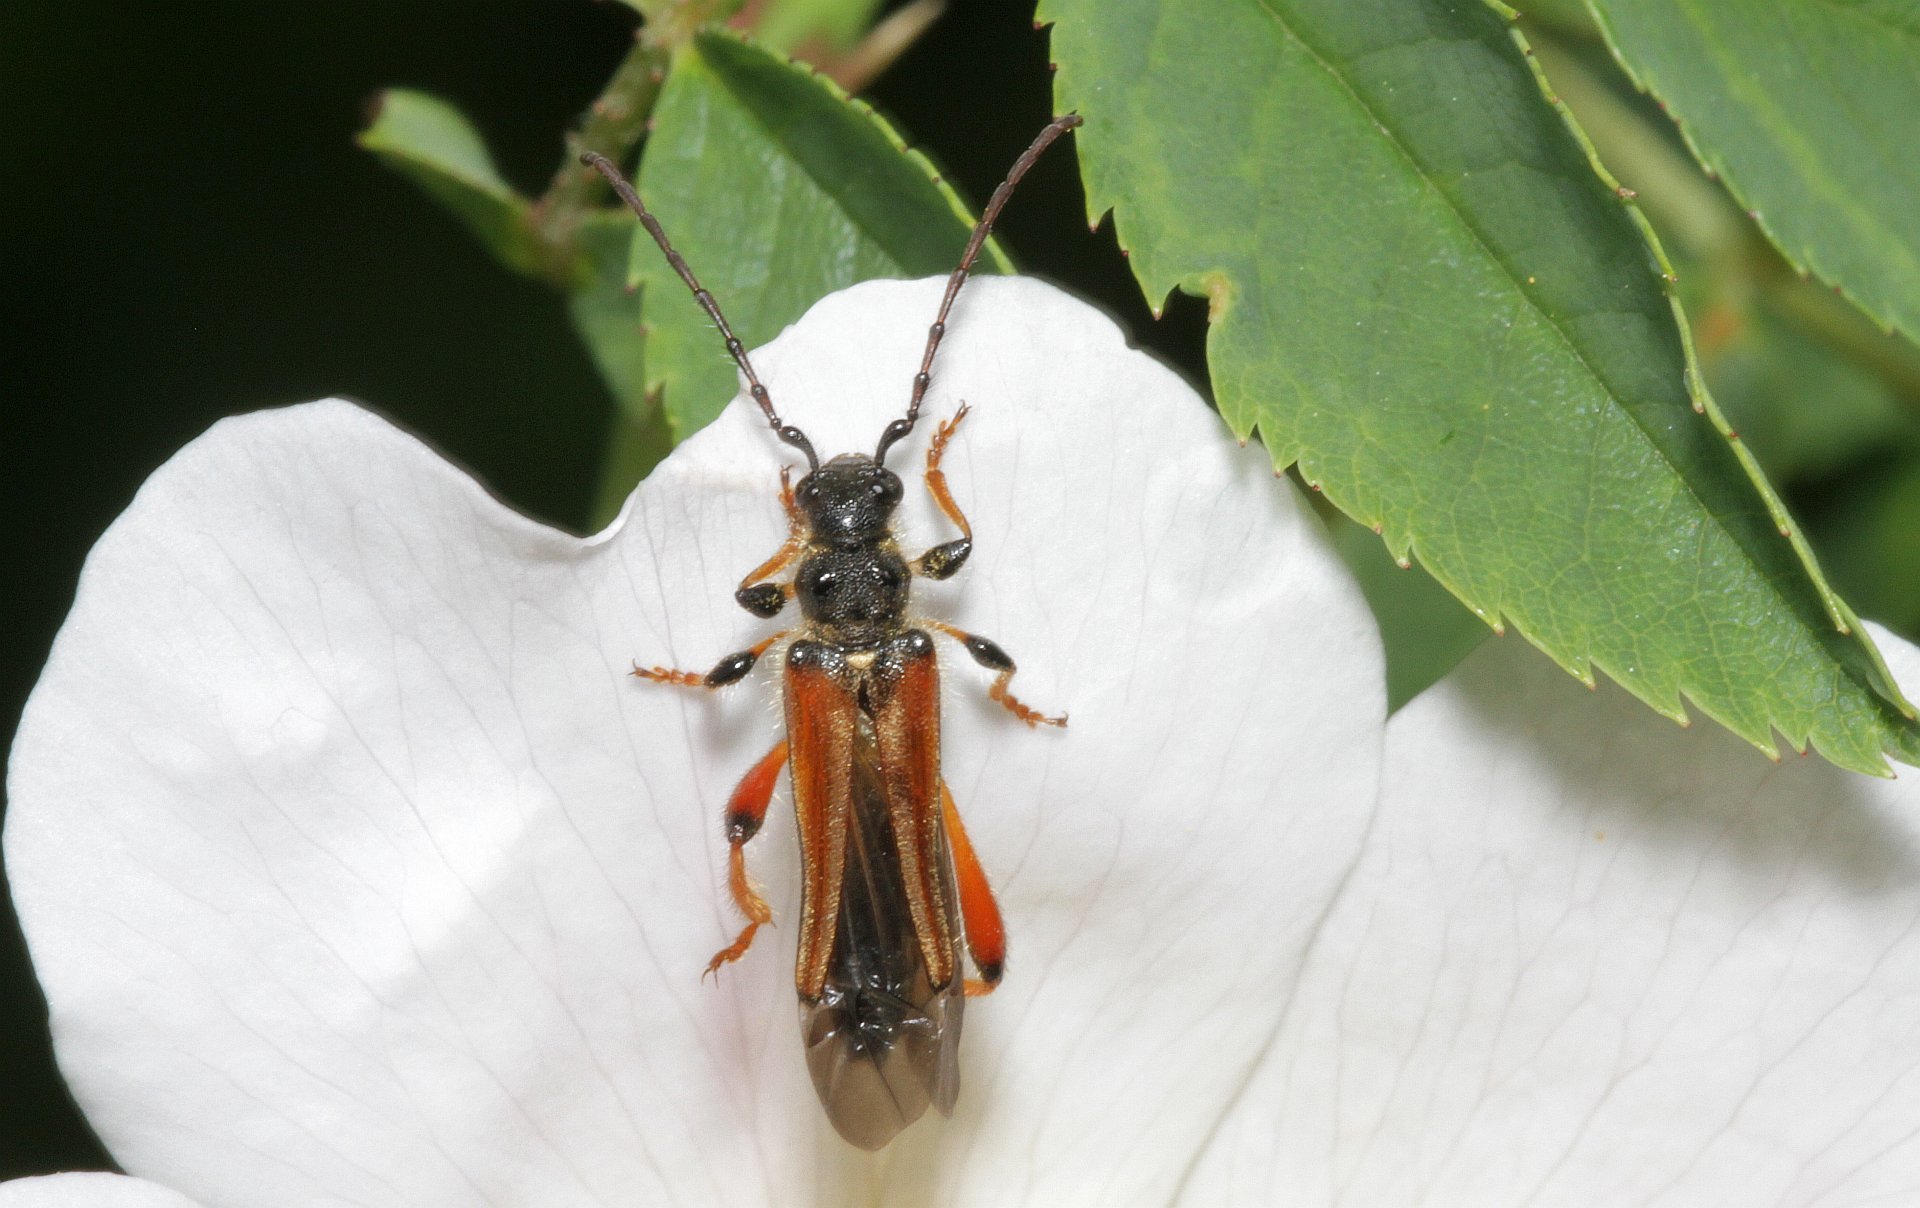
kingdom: Animalia
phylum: Arthropoda
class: Insecta
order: Coleoptera
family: Cerambycidae
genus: Stenopterus
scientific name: Stenopterus rufus
